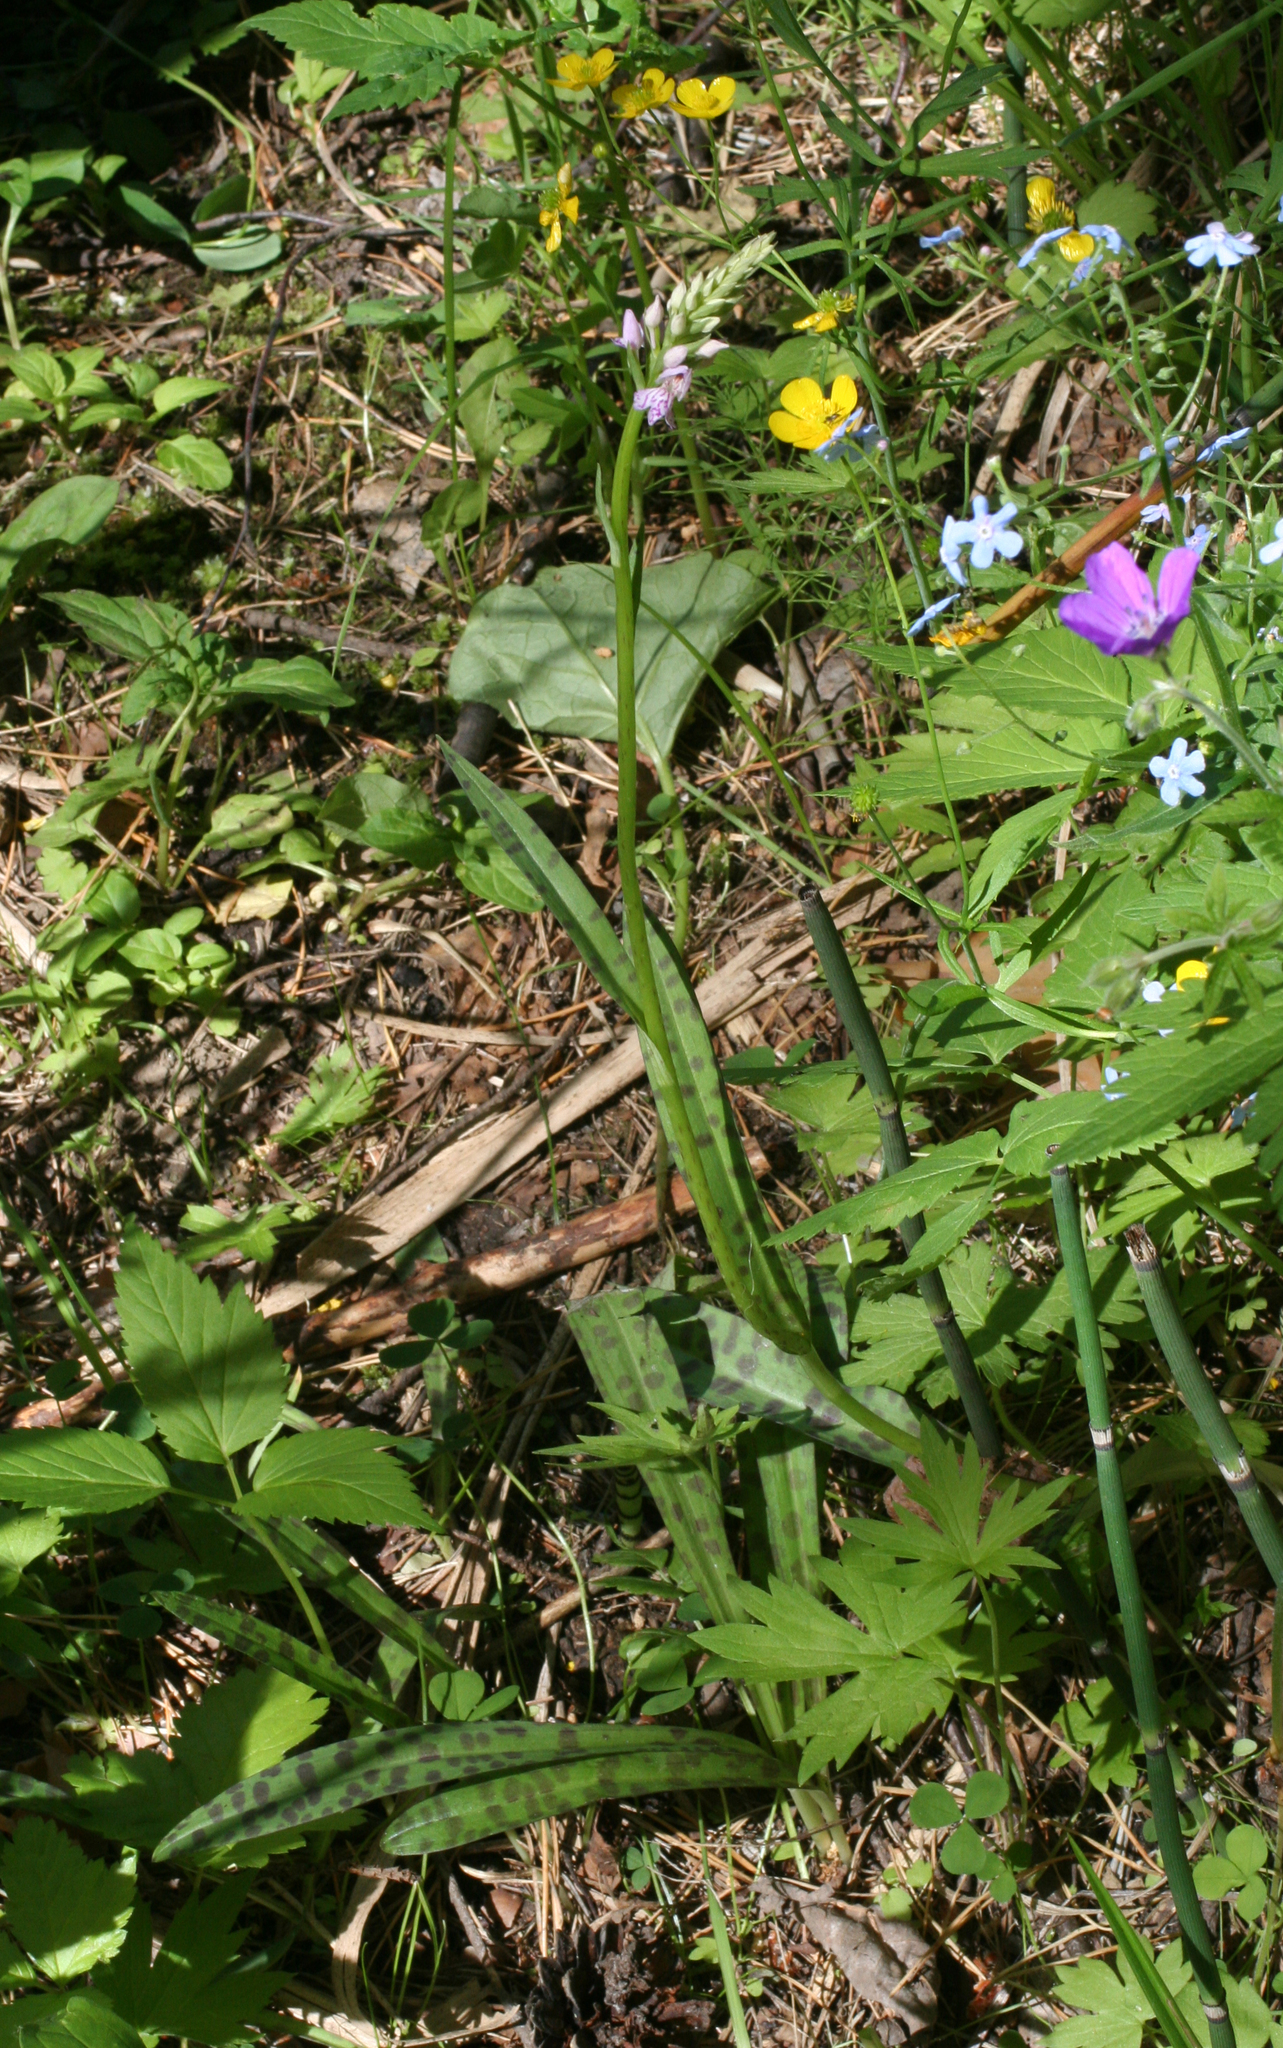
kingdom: Plantae
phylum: Tracheophyta
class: Liliopsida
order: Asparagales
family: Orchidaceae
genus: Dactylorhiza
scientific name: Dactylorhiza maculata
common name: Heath spotted-orchid
